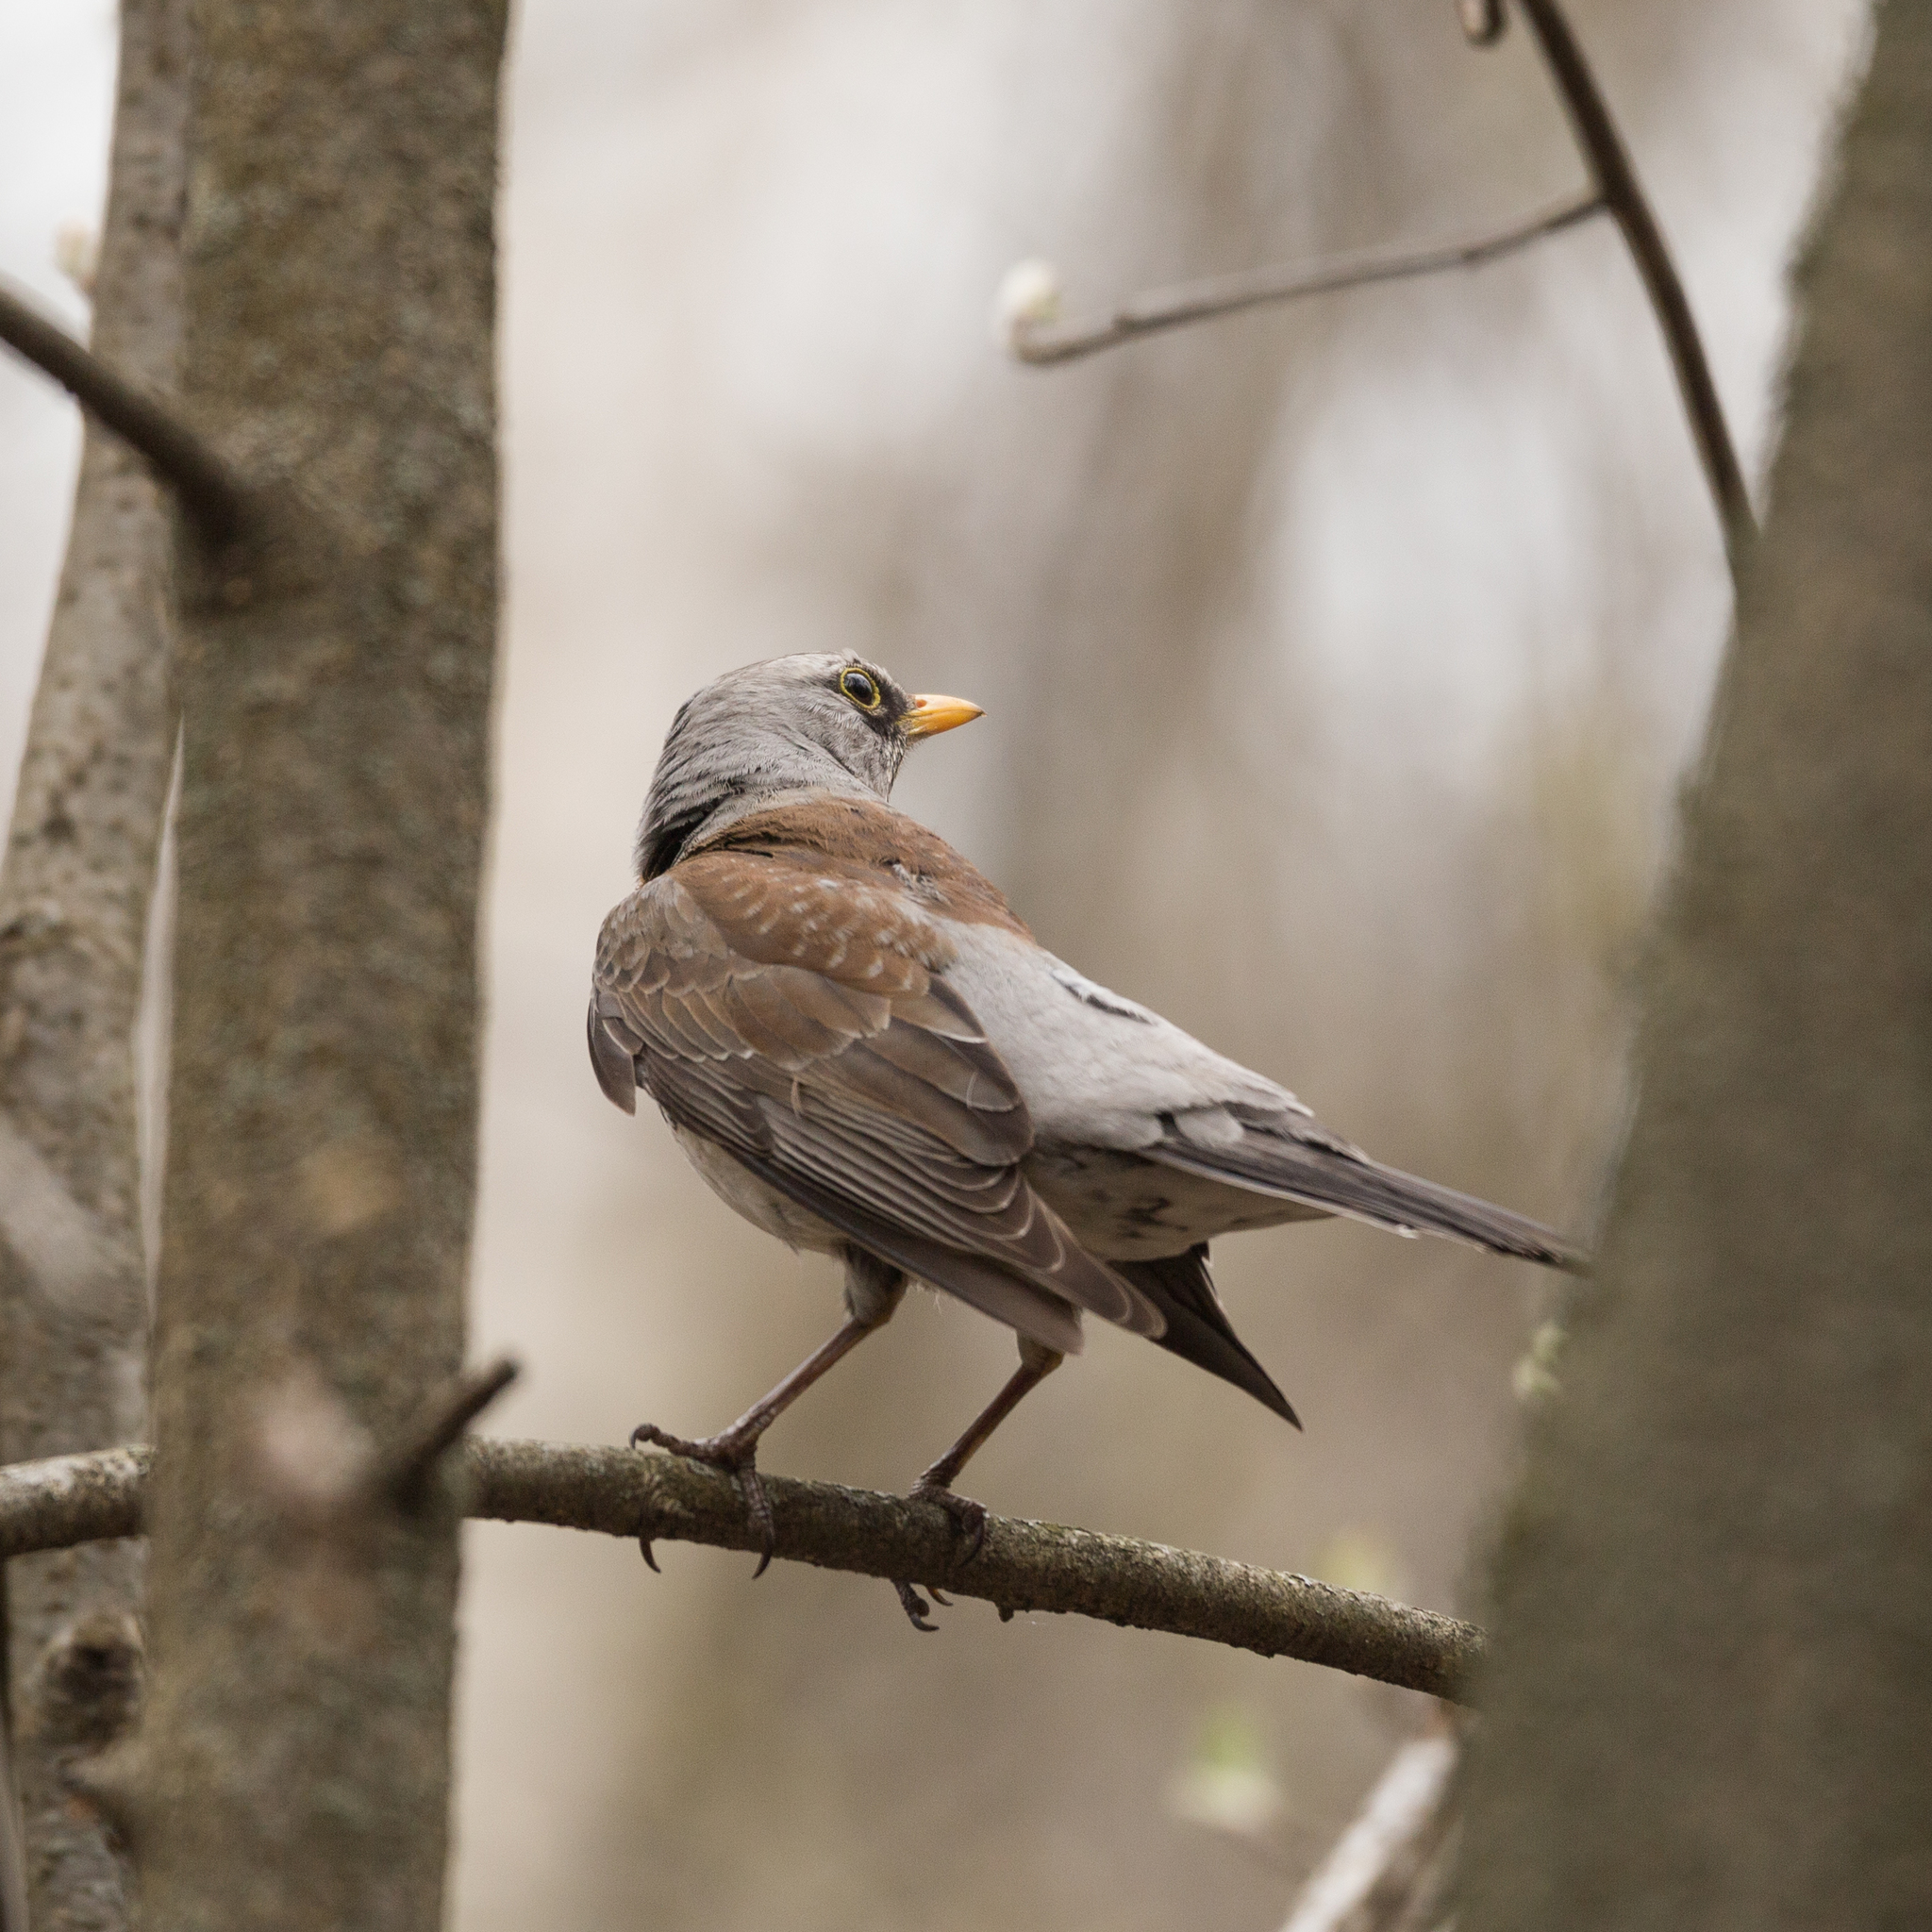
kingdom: Animalia
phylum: Chordata
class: Aves
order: Passeriformes
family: Turdidae
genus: Turdus
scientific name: Turdus pilaris
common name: Fieldfare
